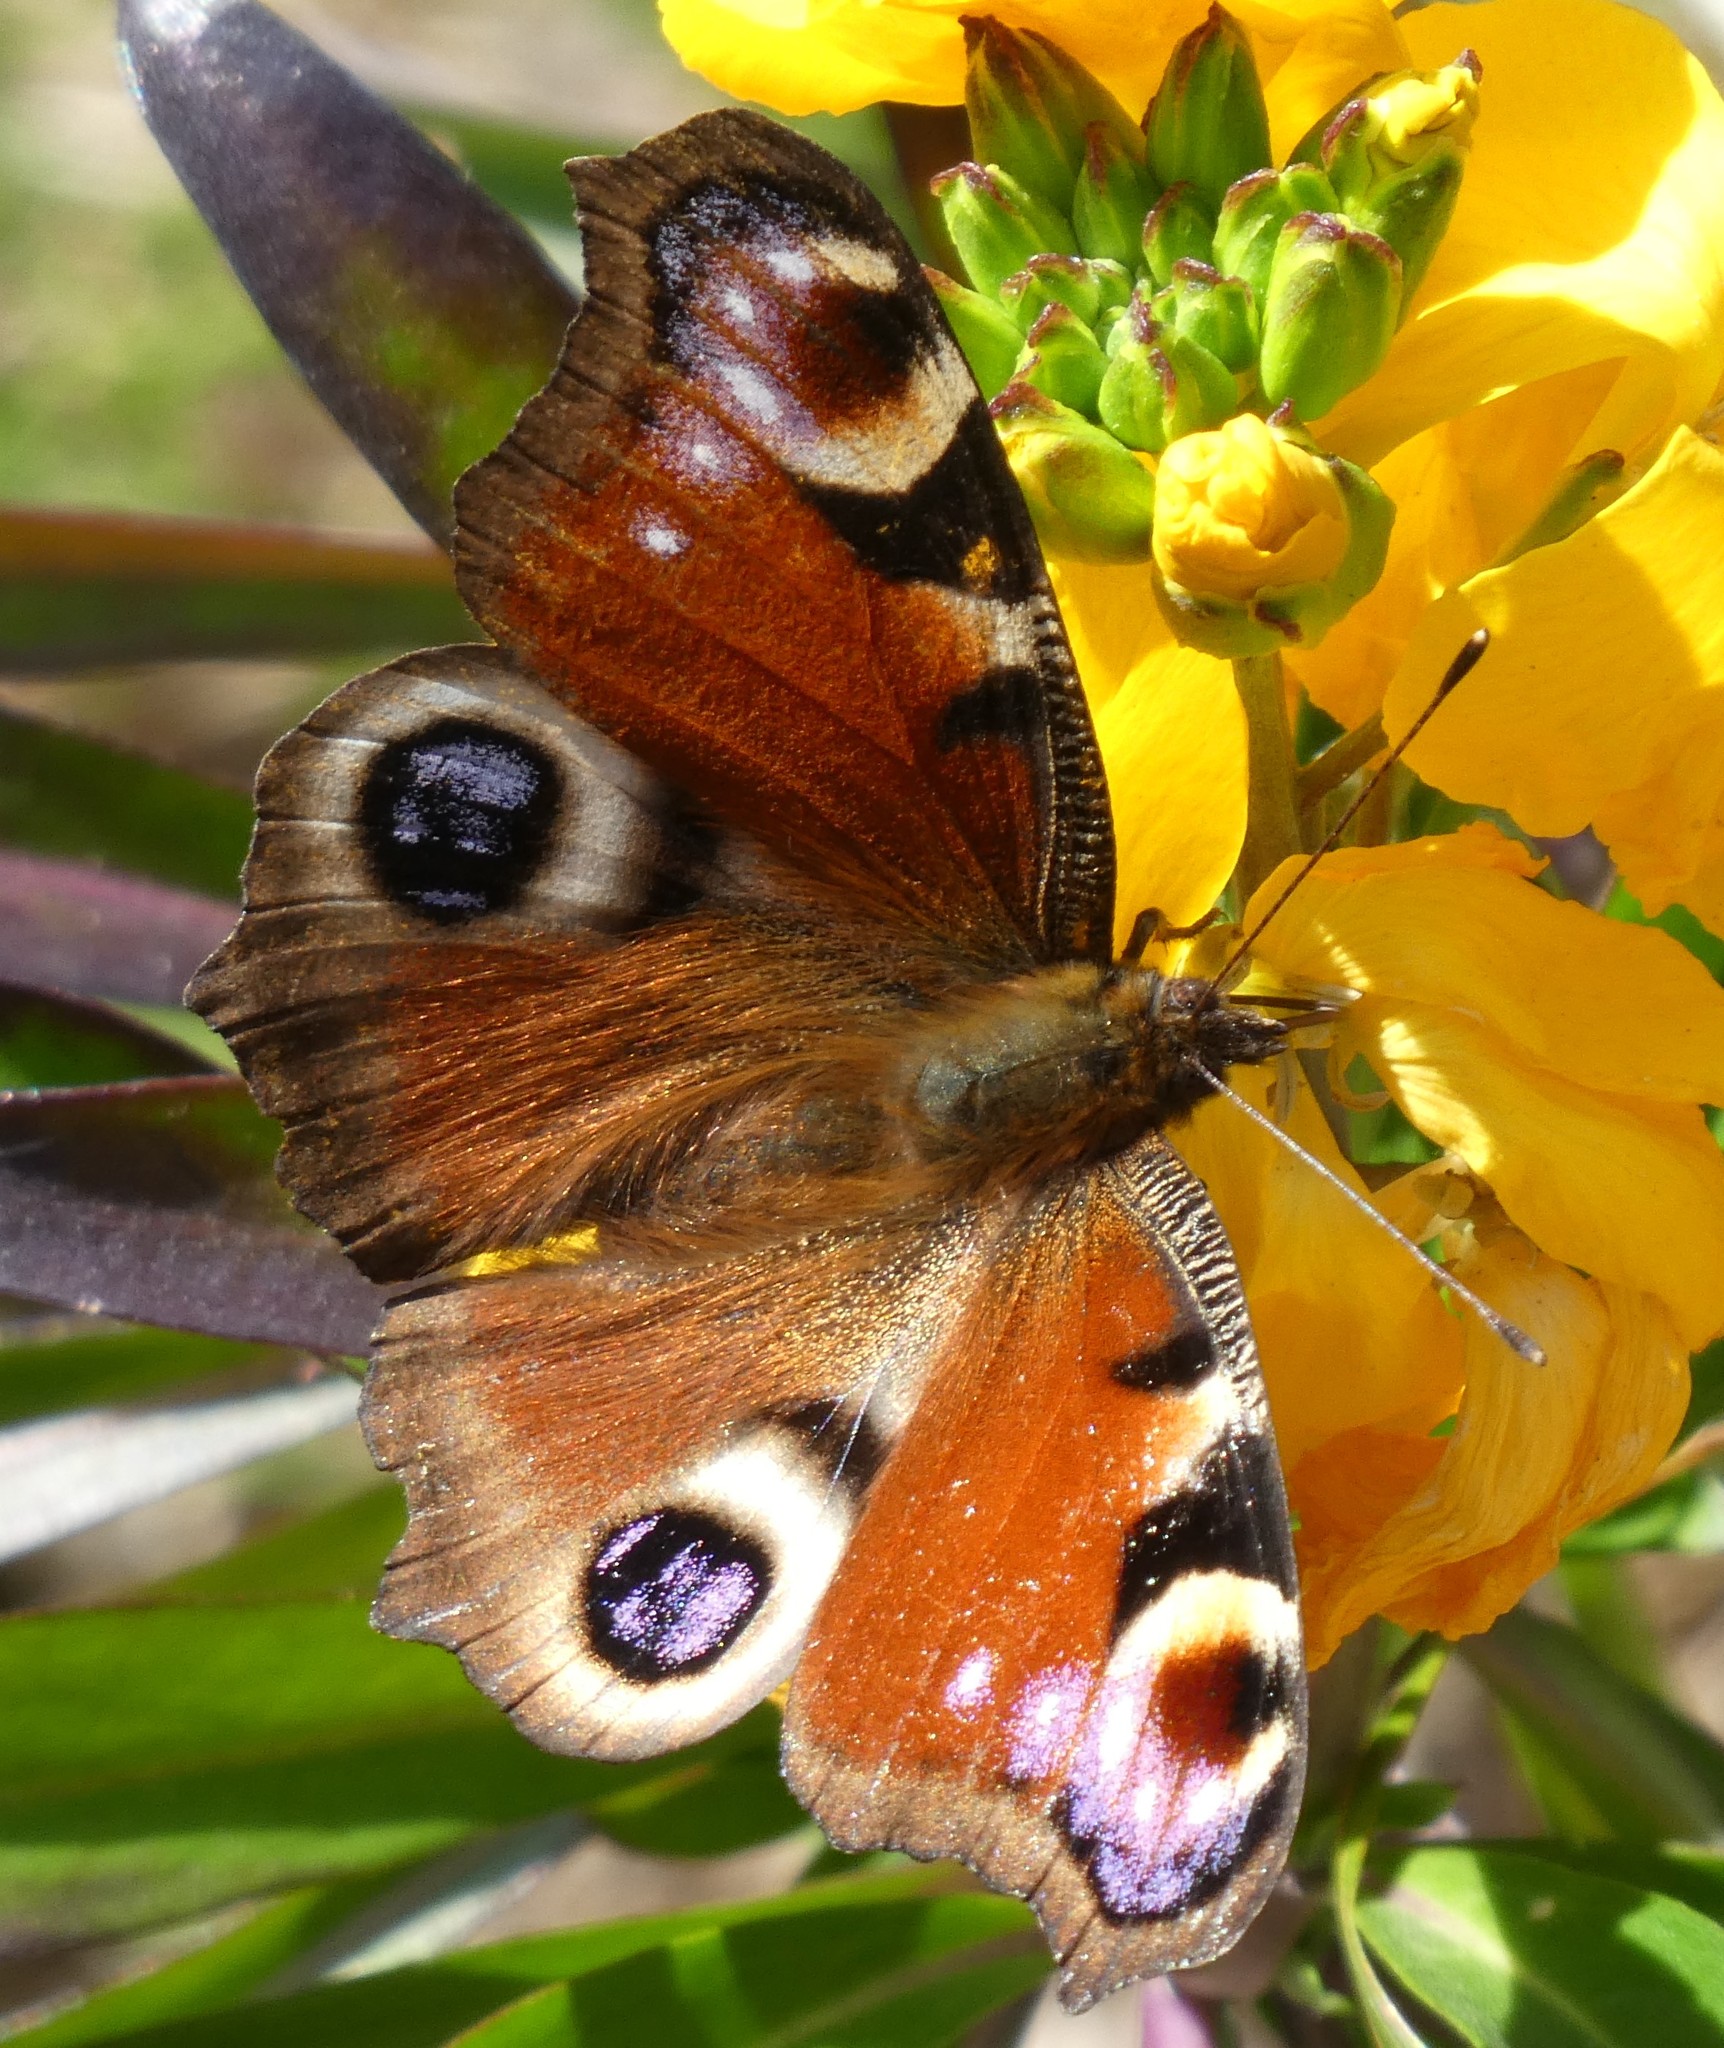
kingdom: Animalia
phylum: Arthropoda
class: Insecta
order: Lepidoptera
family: Nymphalidae
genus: Aglais
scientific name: Aglais io
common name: Peacock
